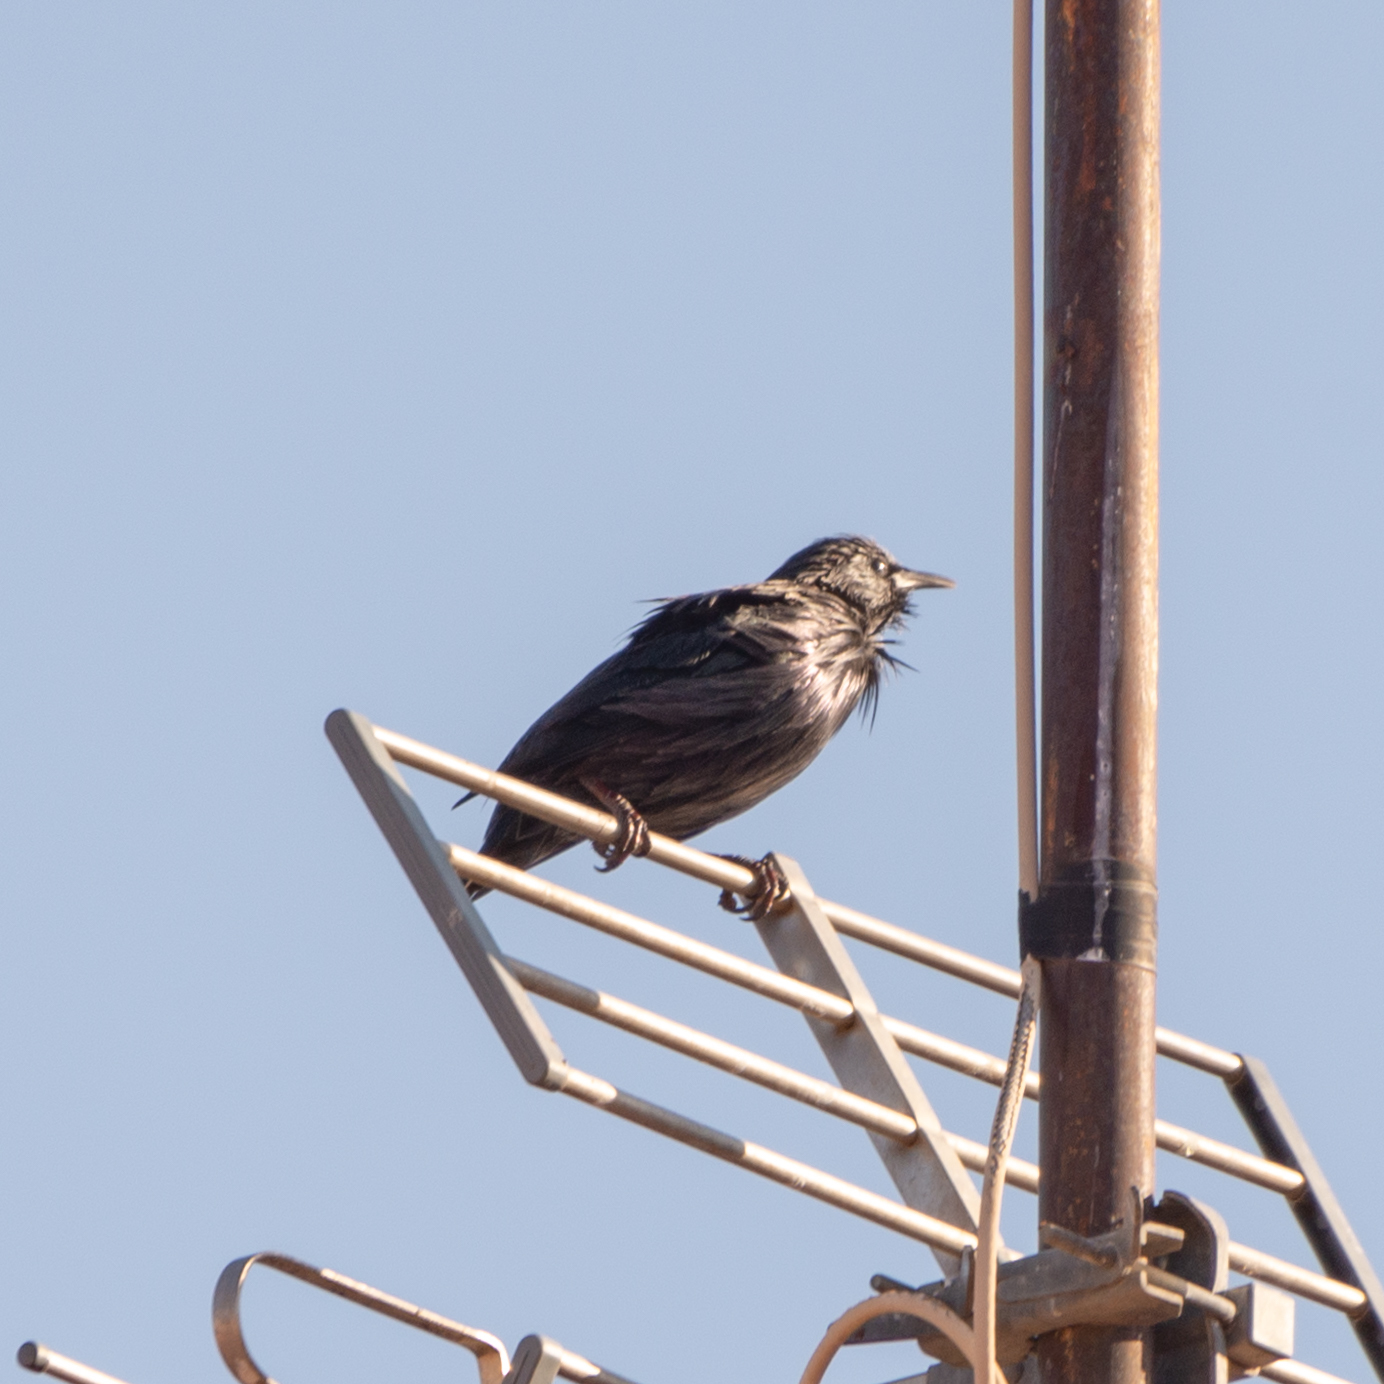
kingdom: Animalia
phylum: Chordata
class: Aves
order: Passeriformes
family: Sturnidae
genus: Sturnus
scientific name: Sturnus unicolor
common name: Spotless starling
